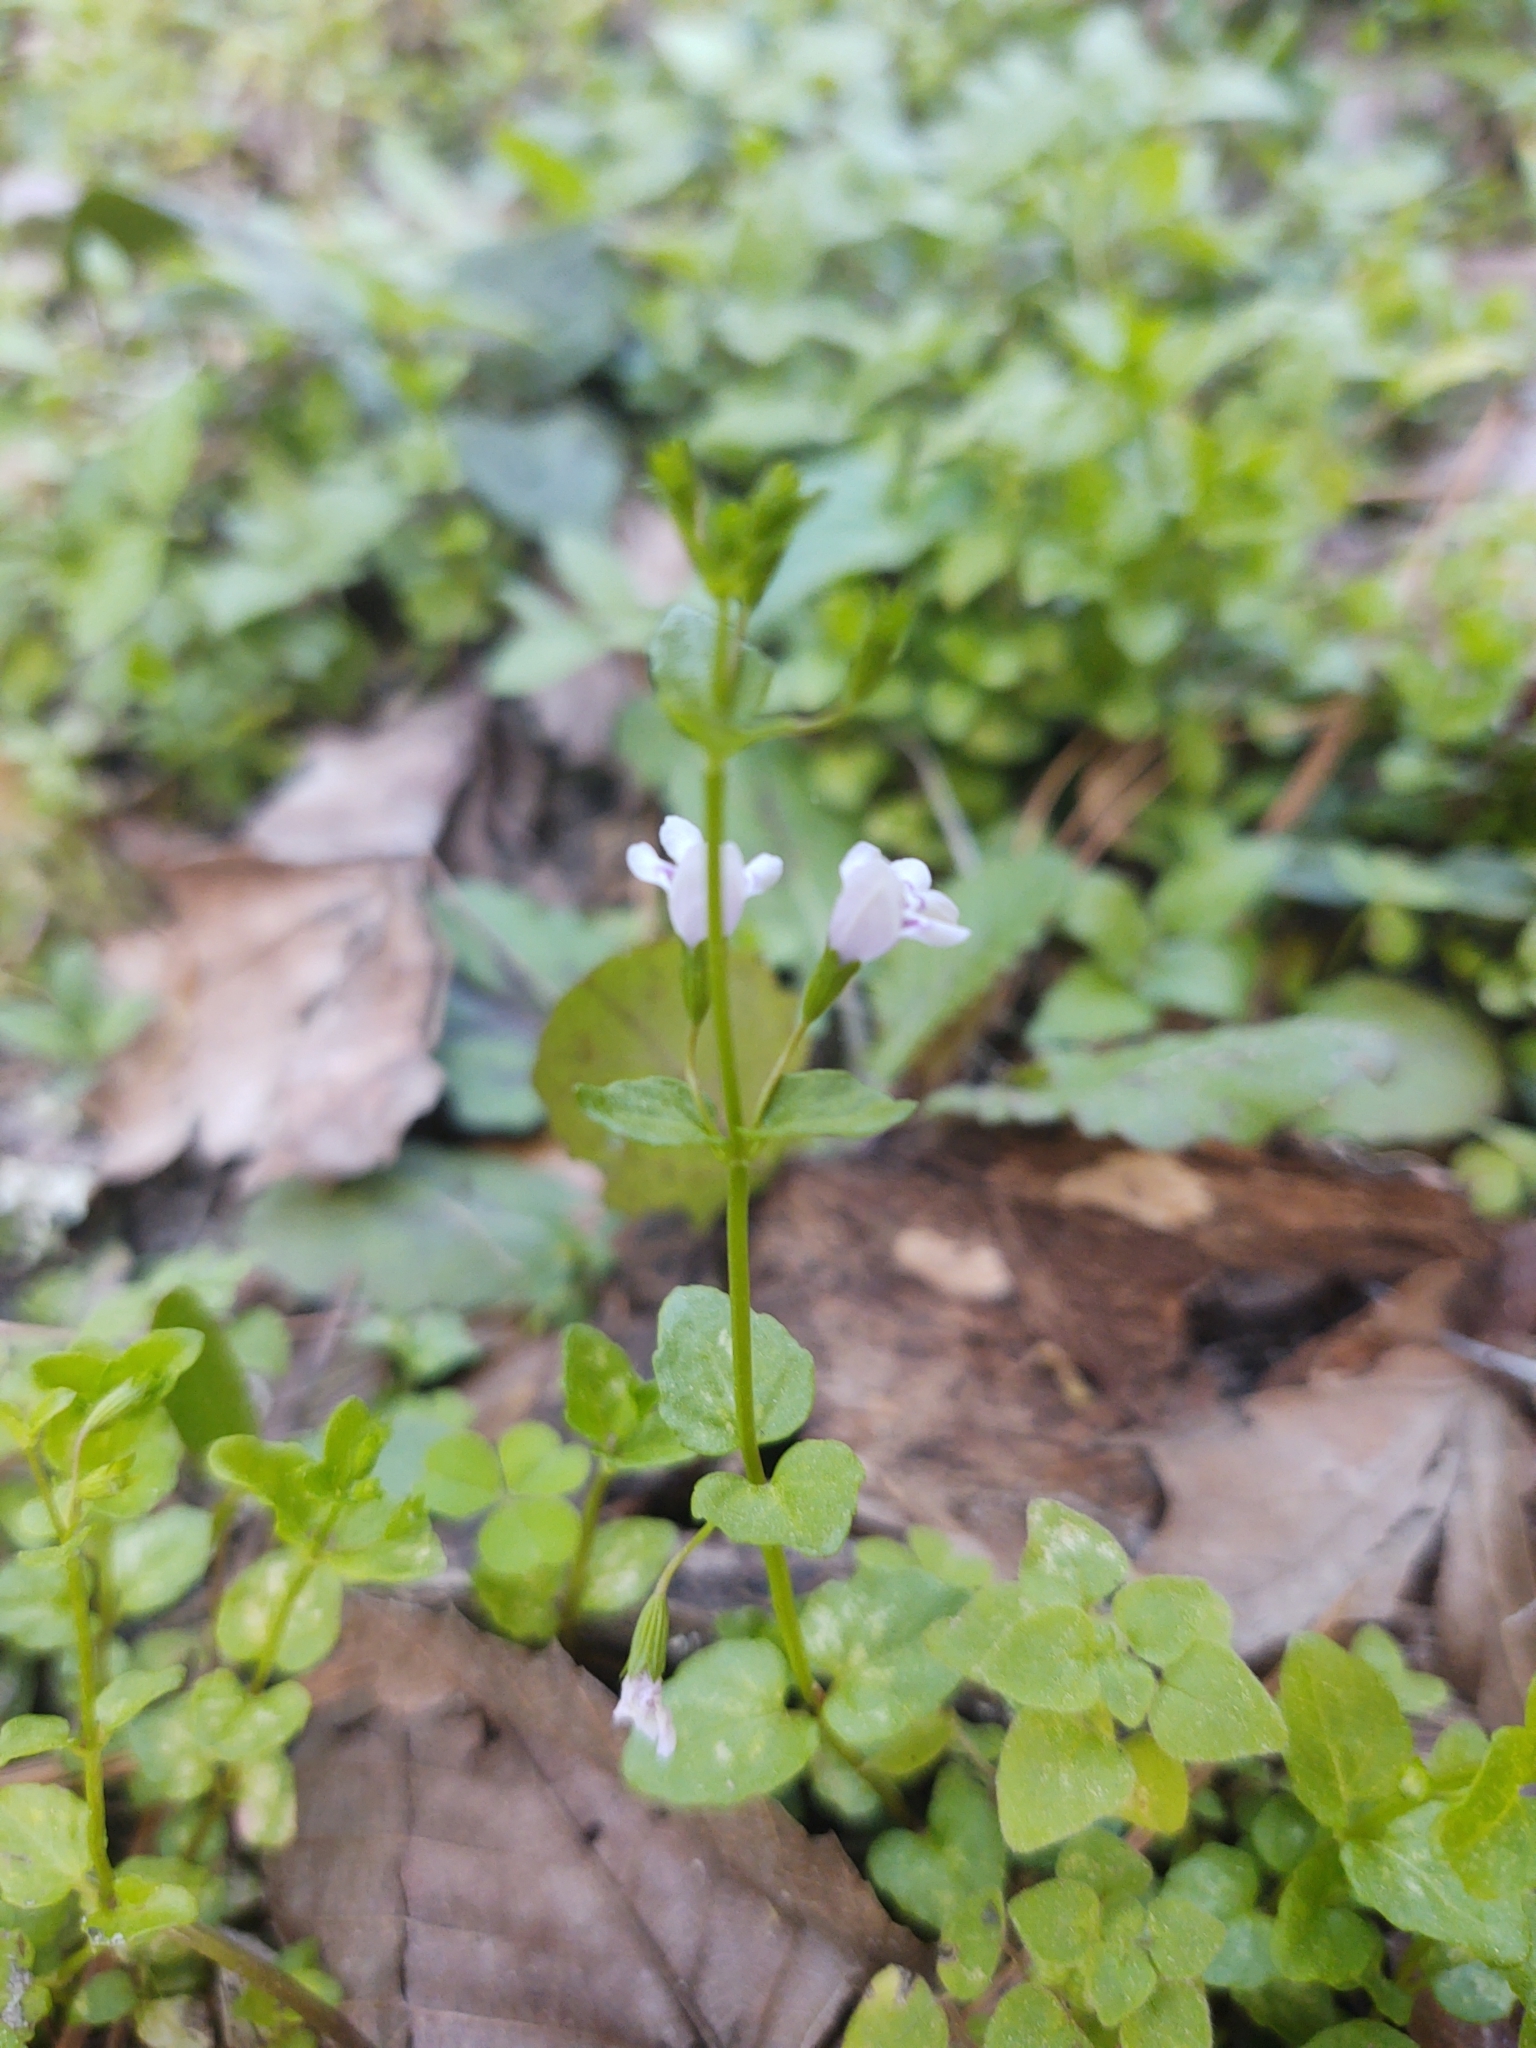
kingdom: Plantae
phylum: Tracheophyta
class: Magnoliopsida
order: Lamiales
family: Lamiaceae
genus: Clinopodium
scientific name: Clinopodium brownei
